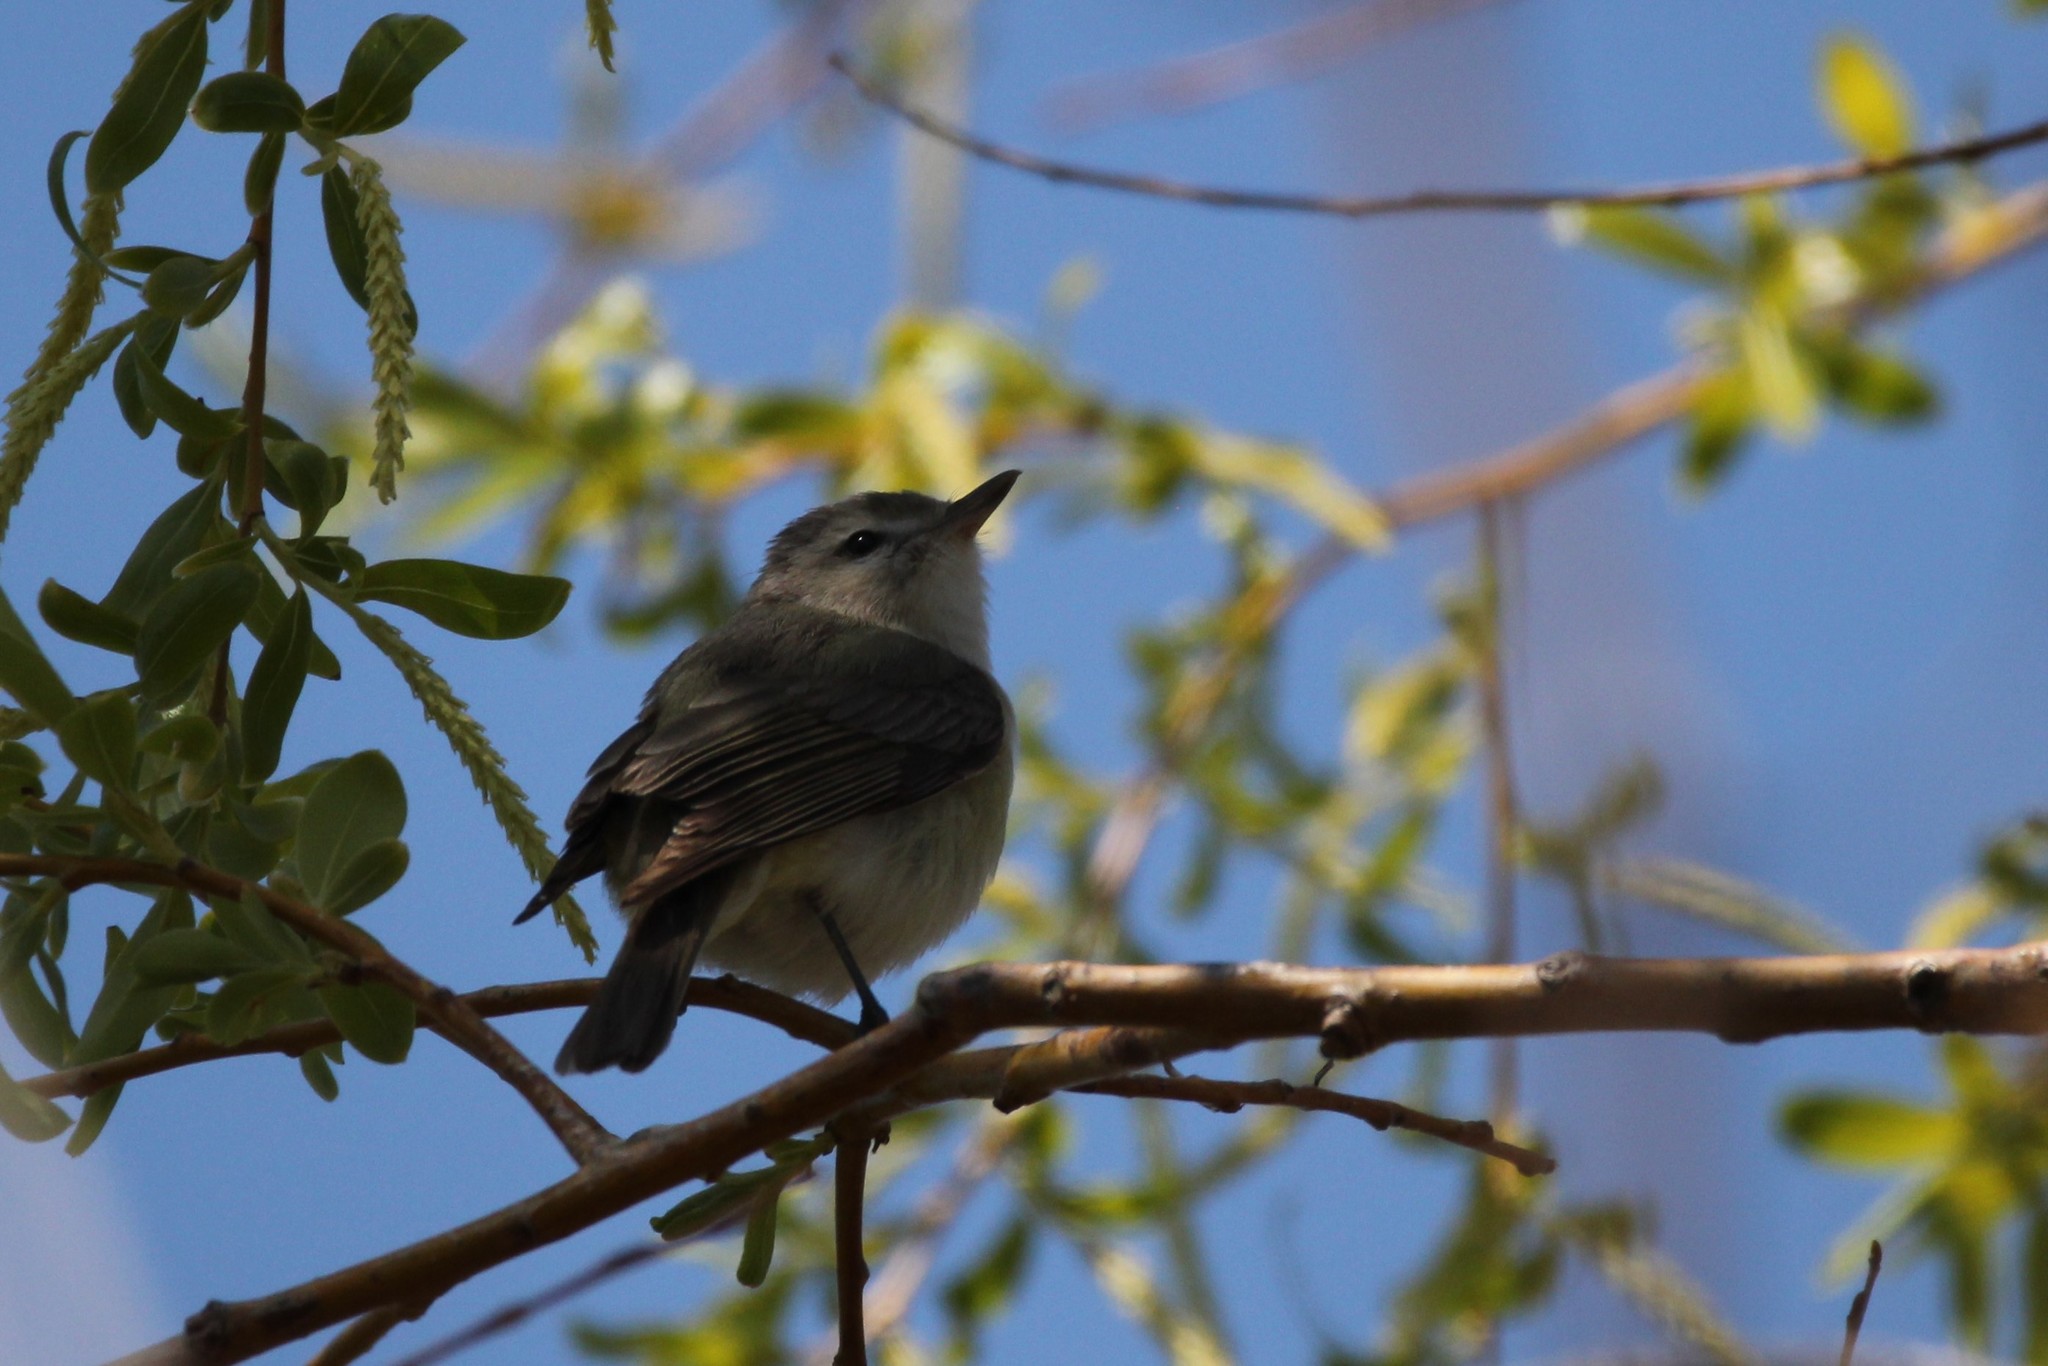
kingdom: Animalia
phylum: Chordata
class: Aves
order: Passeriformes
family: Vireonidae
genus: Vireo
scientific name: Vireo gilvus
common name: Warbling vireo
